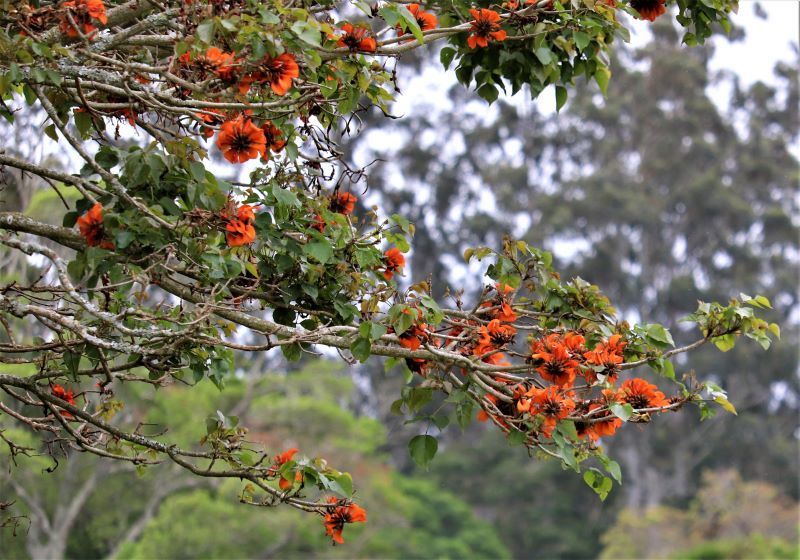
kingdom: Plantae
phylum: Tracheophyta
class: Magnoliopsida
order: Fabales
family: Fabaceae
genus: Erythrina
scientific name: Erythrina caffra
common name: Coast coral tree
